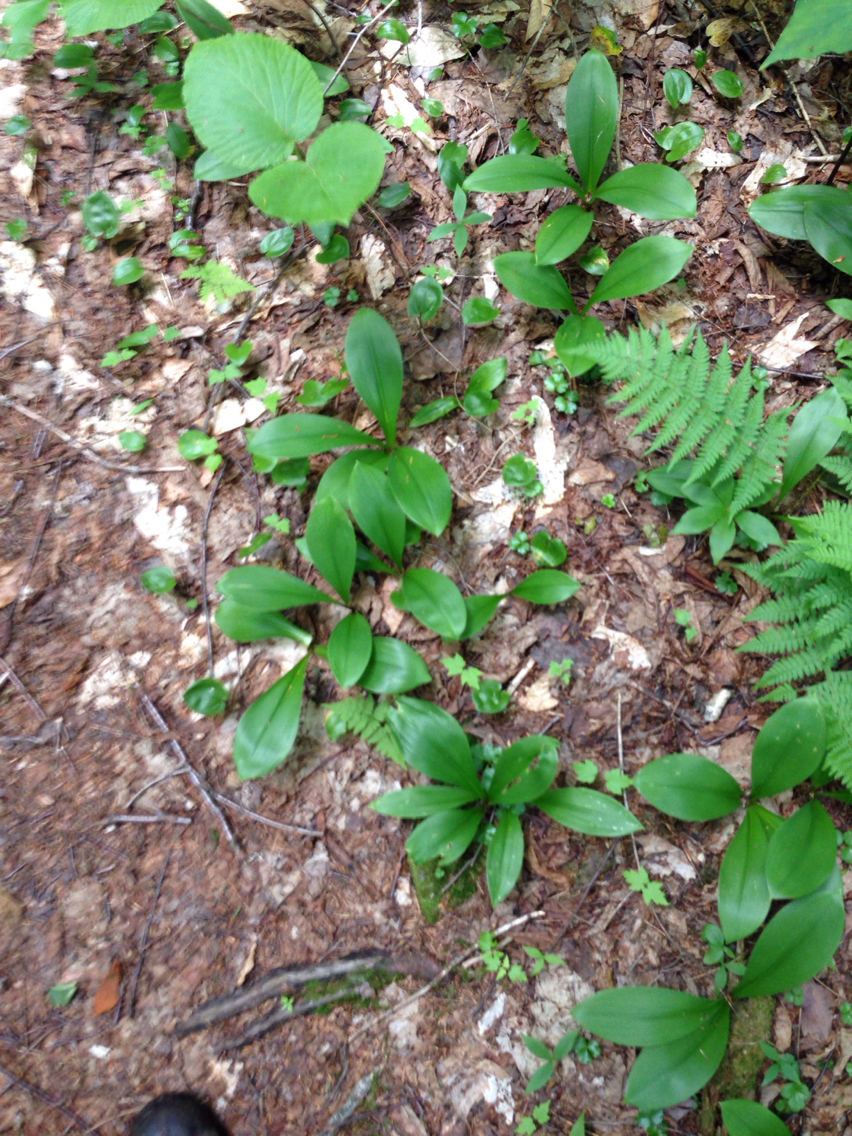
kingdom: Plantae
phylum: Tracheophyta
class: Liliopsida
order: Liliales
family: Liliaceae
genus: Clintonia
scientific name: Clintonia borealis
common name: Yellow clintonia
